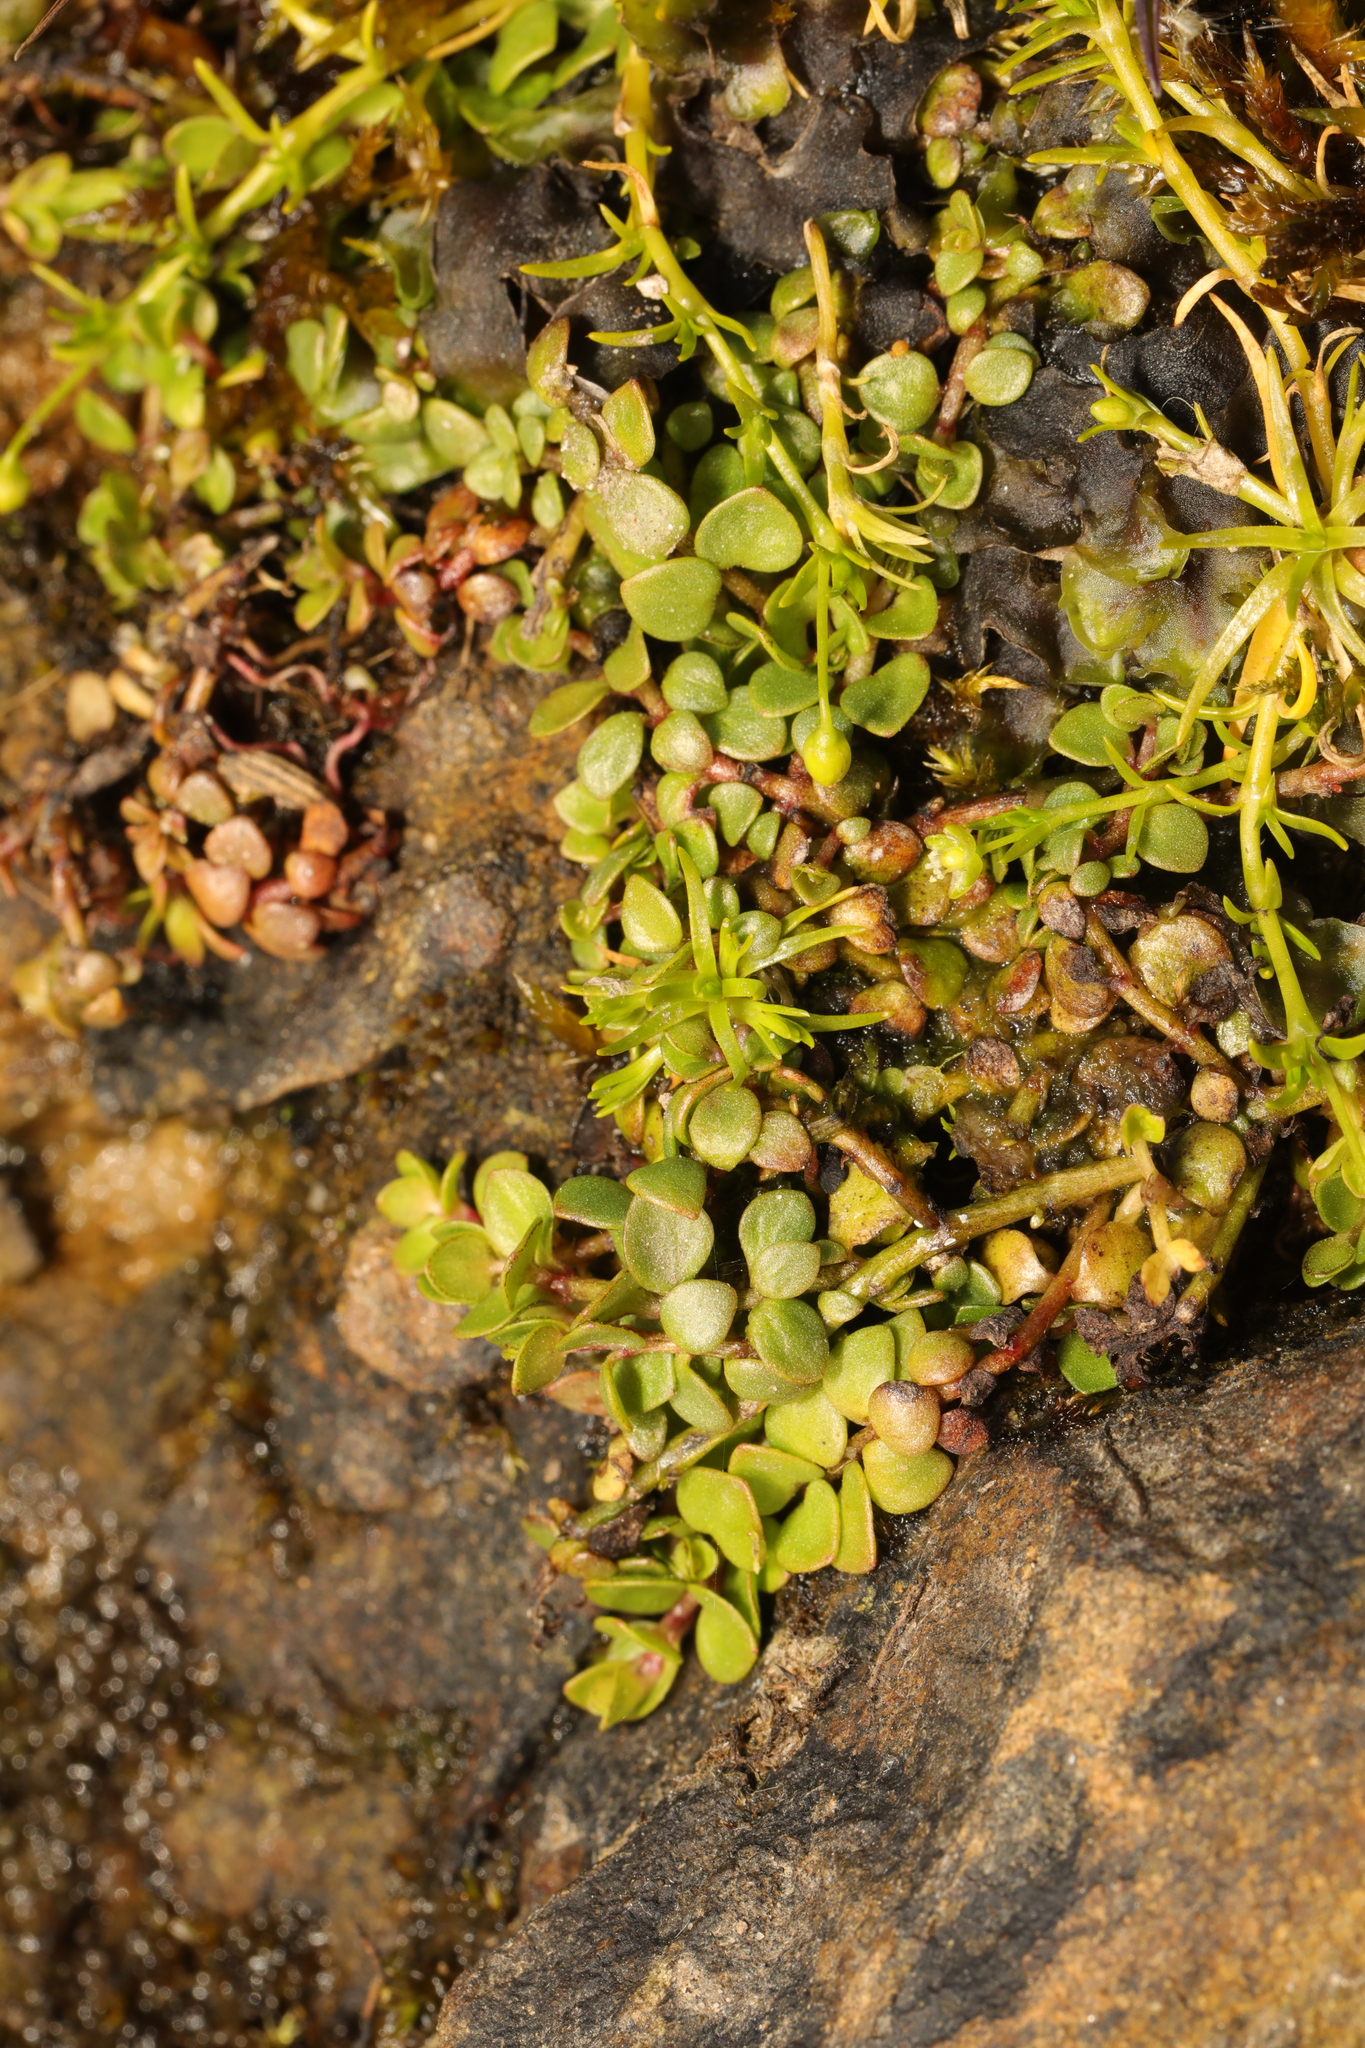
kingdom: Plantae
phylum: Tracheophyta
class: Magnoliopsida
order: Ericales
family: Primulaceae
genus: Lysimachia
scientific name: Lysimachia tenella
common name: European bog pimpernel
